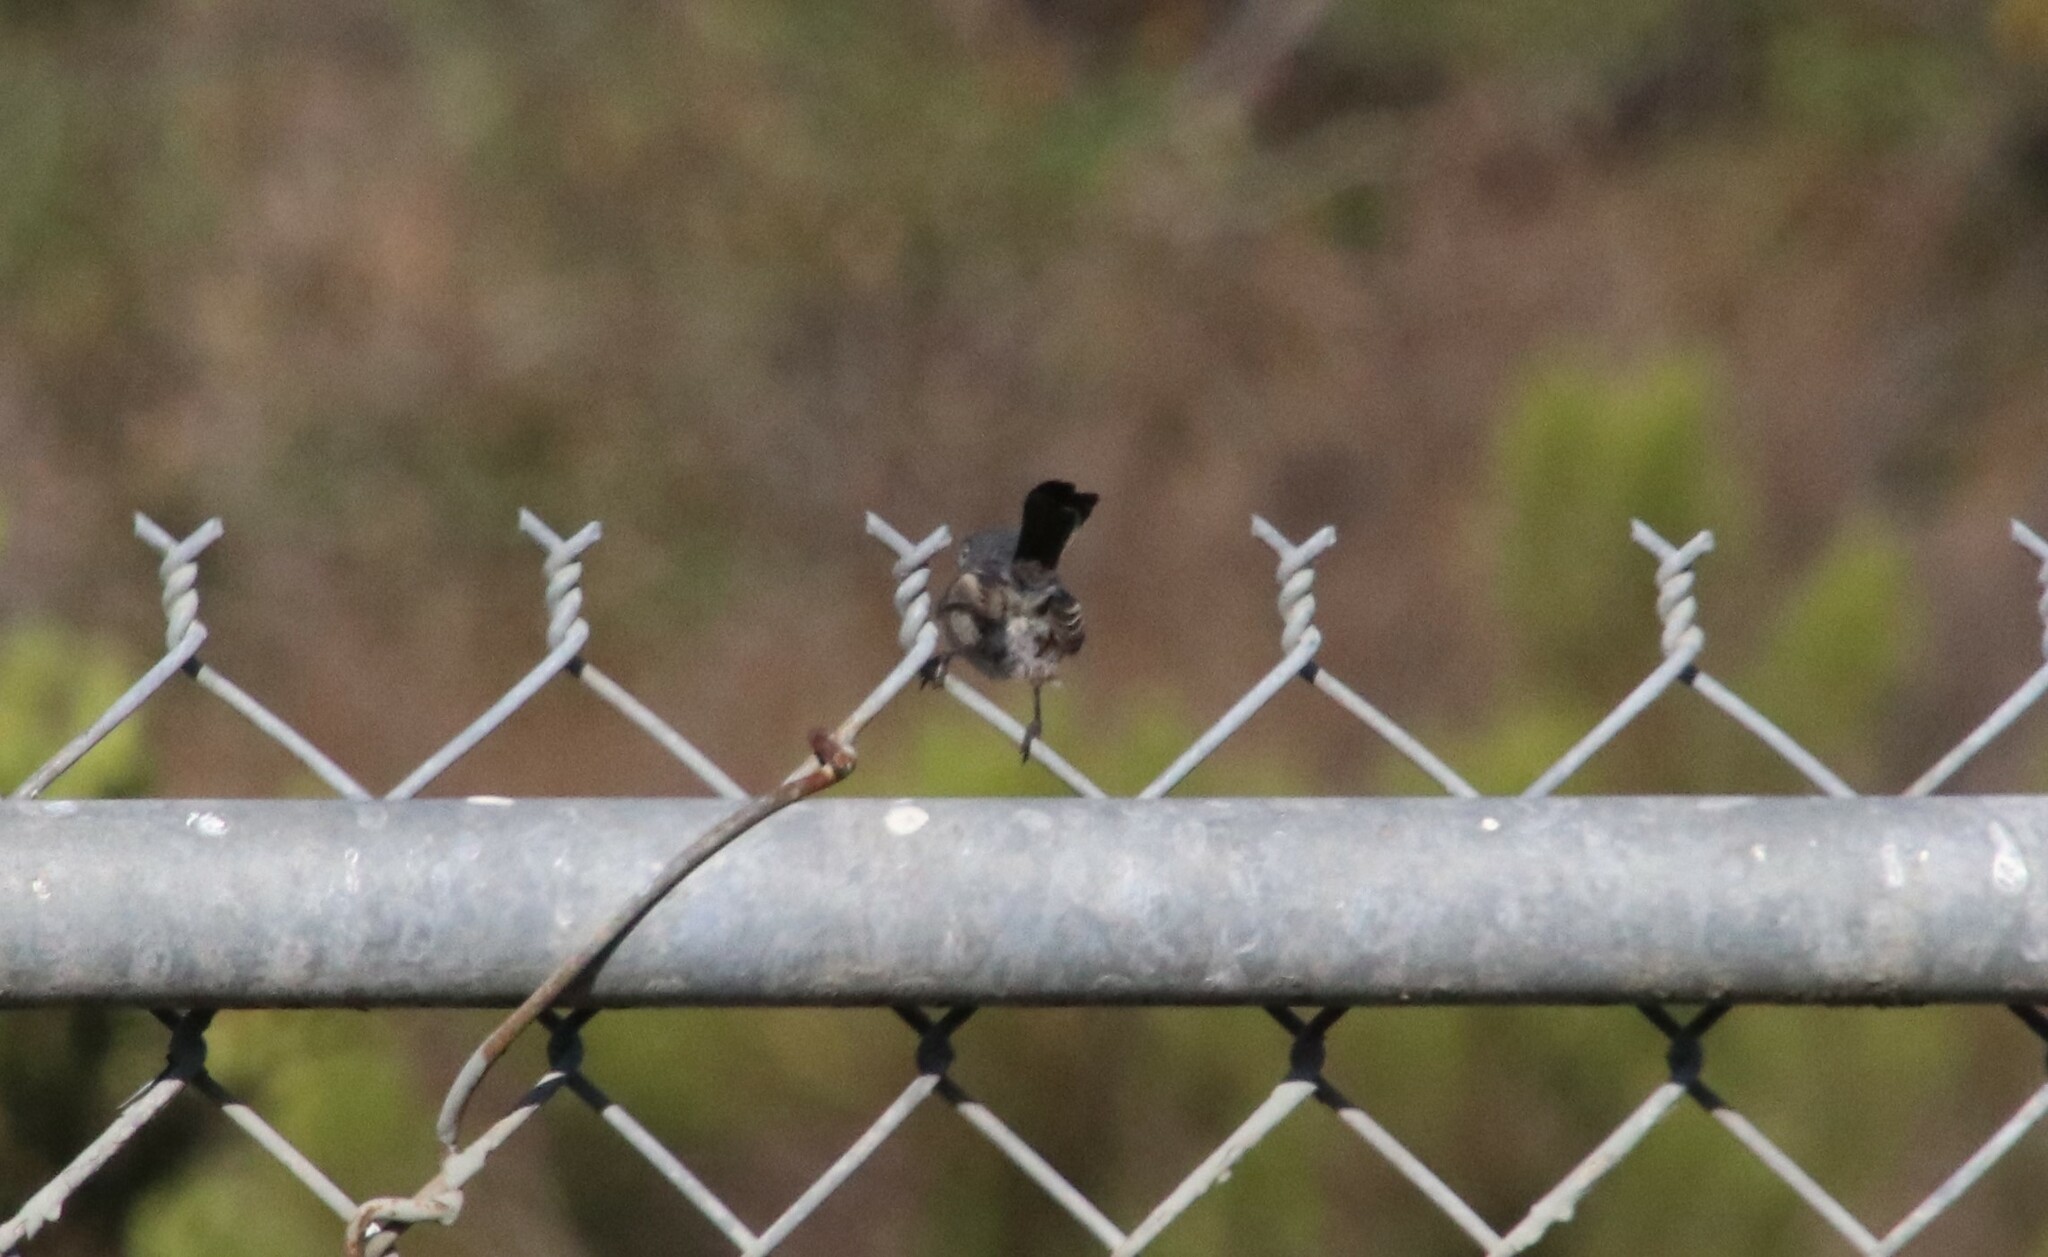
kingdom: Animalia
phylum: Chordata
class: Aves
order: Passeriformes
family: Polioptilidae
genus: Polioptila
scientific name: Polioptila californica
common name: California gnatcatcher
